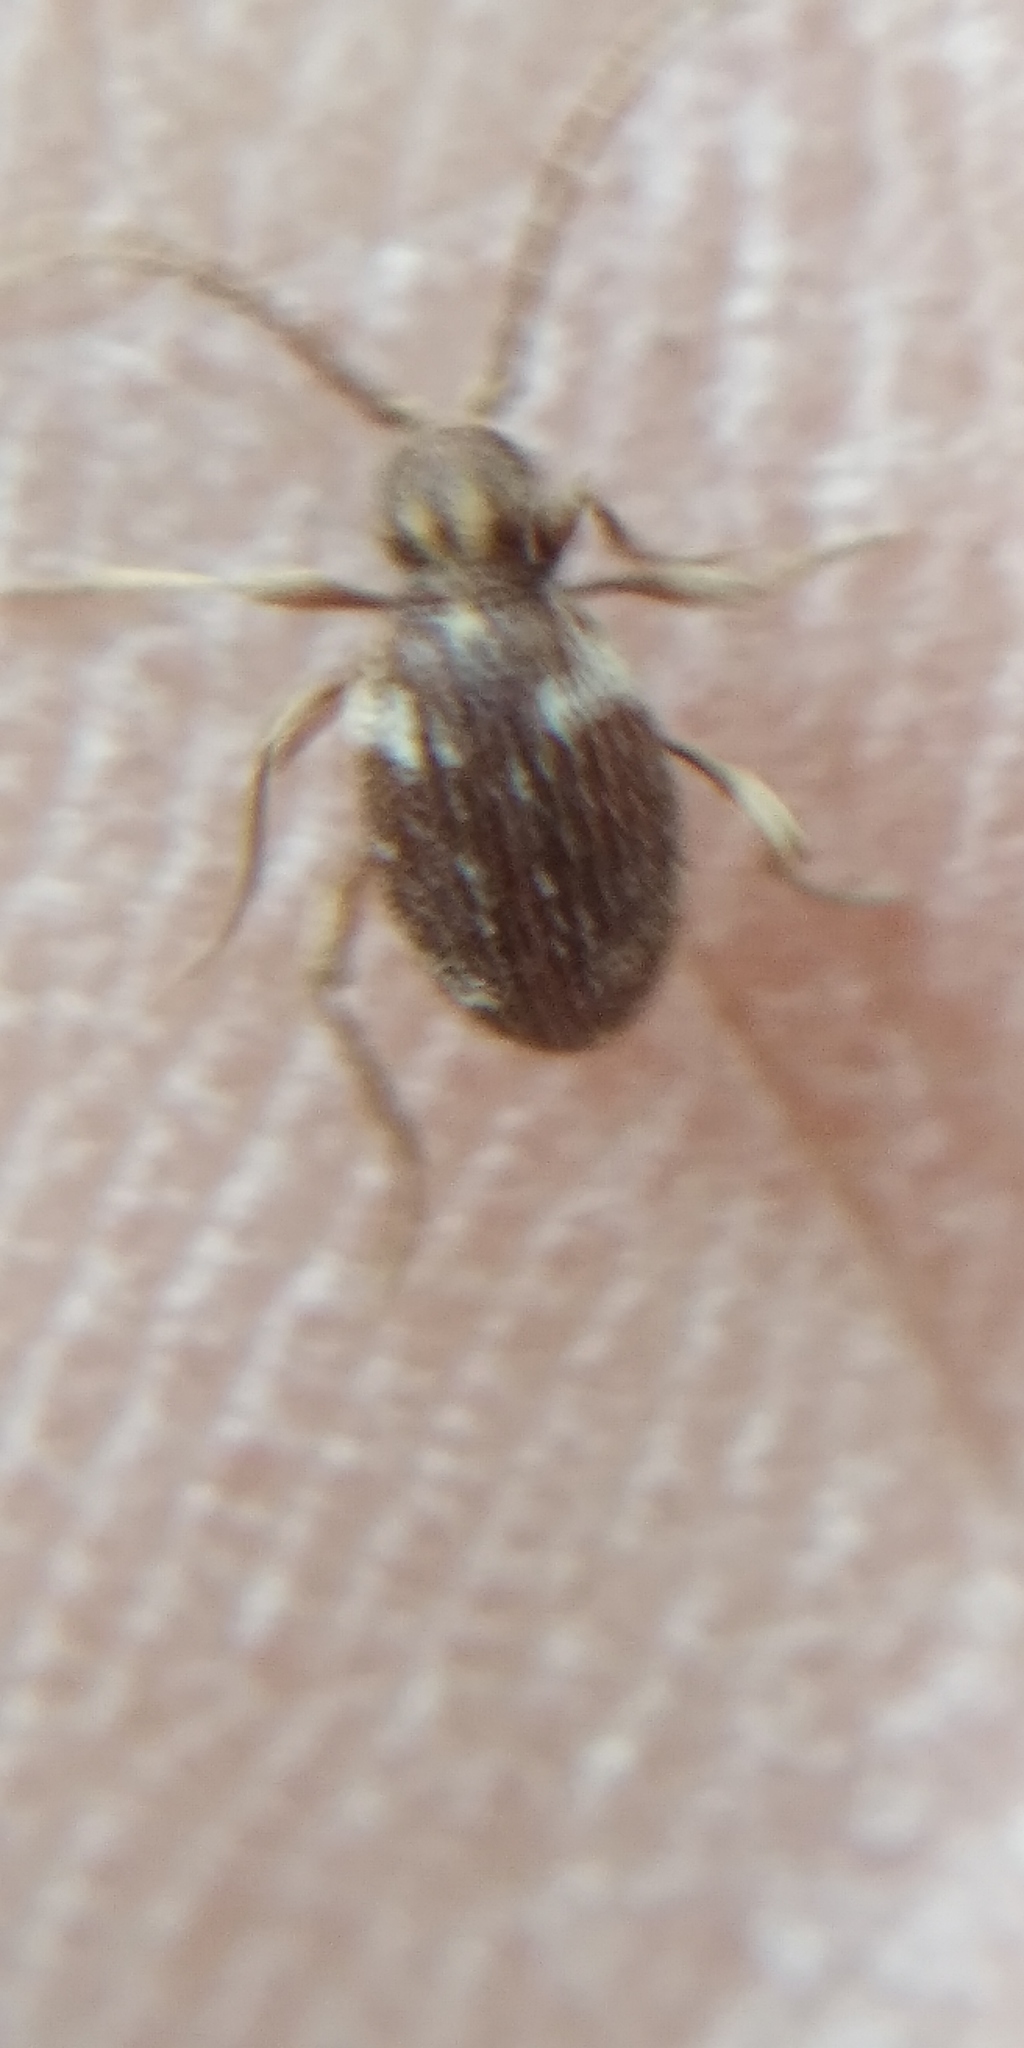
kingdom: Animalia
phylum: Arthropoda
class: Insecta
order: Coleoptera
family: Ptinidae
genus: Ptinus
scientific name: Ptinus fur
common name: White-marked spider beetle
